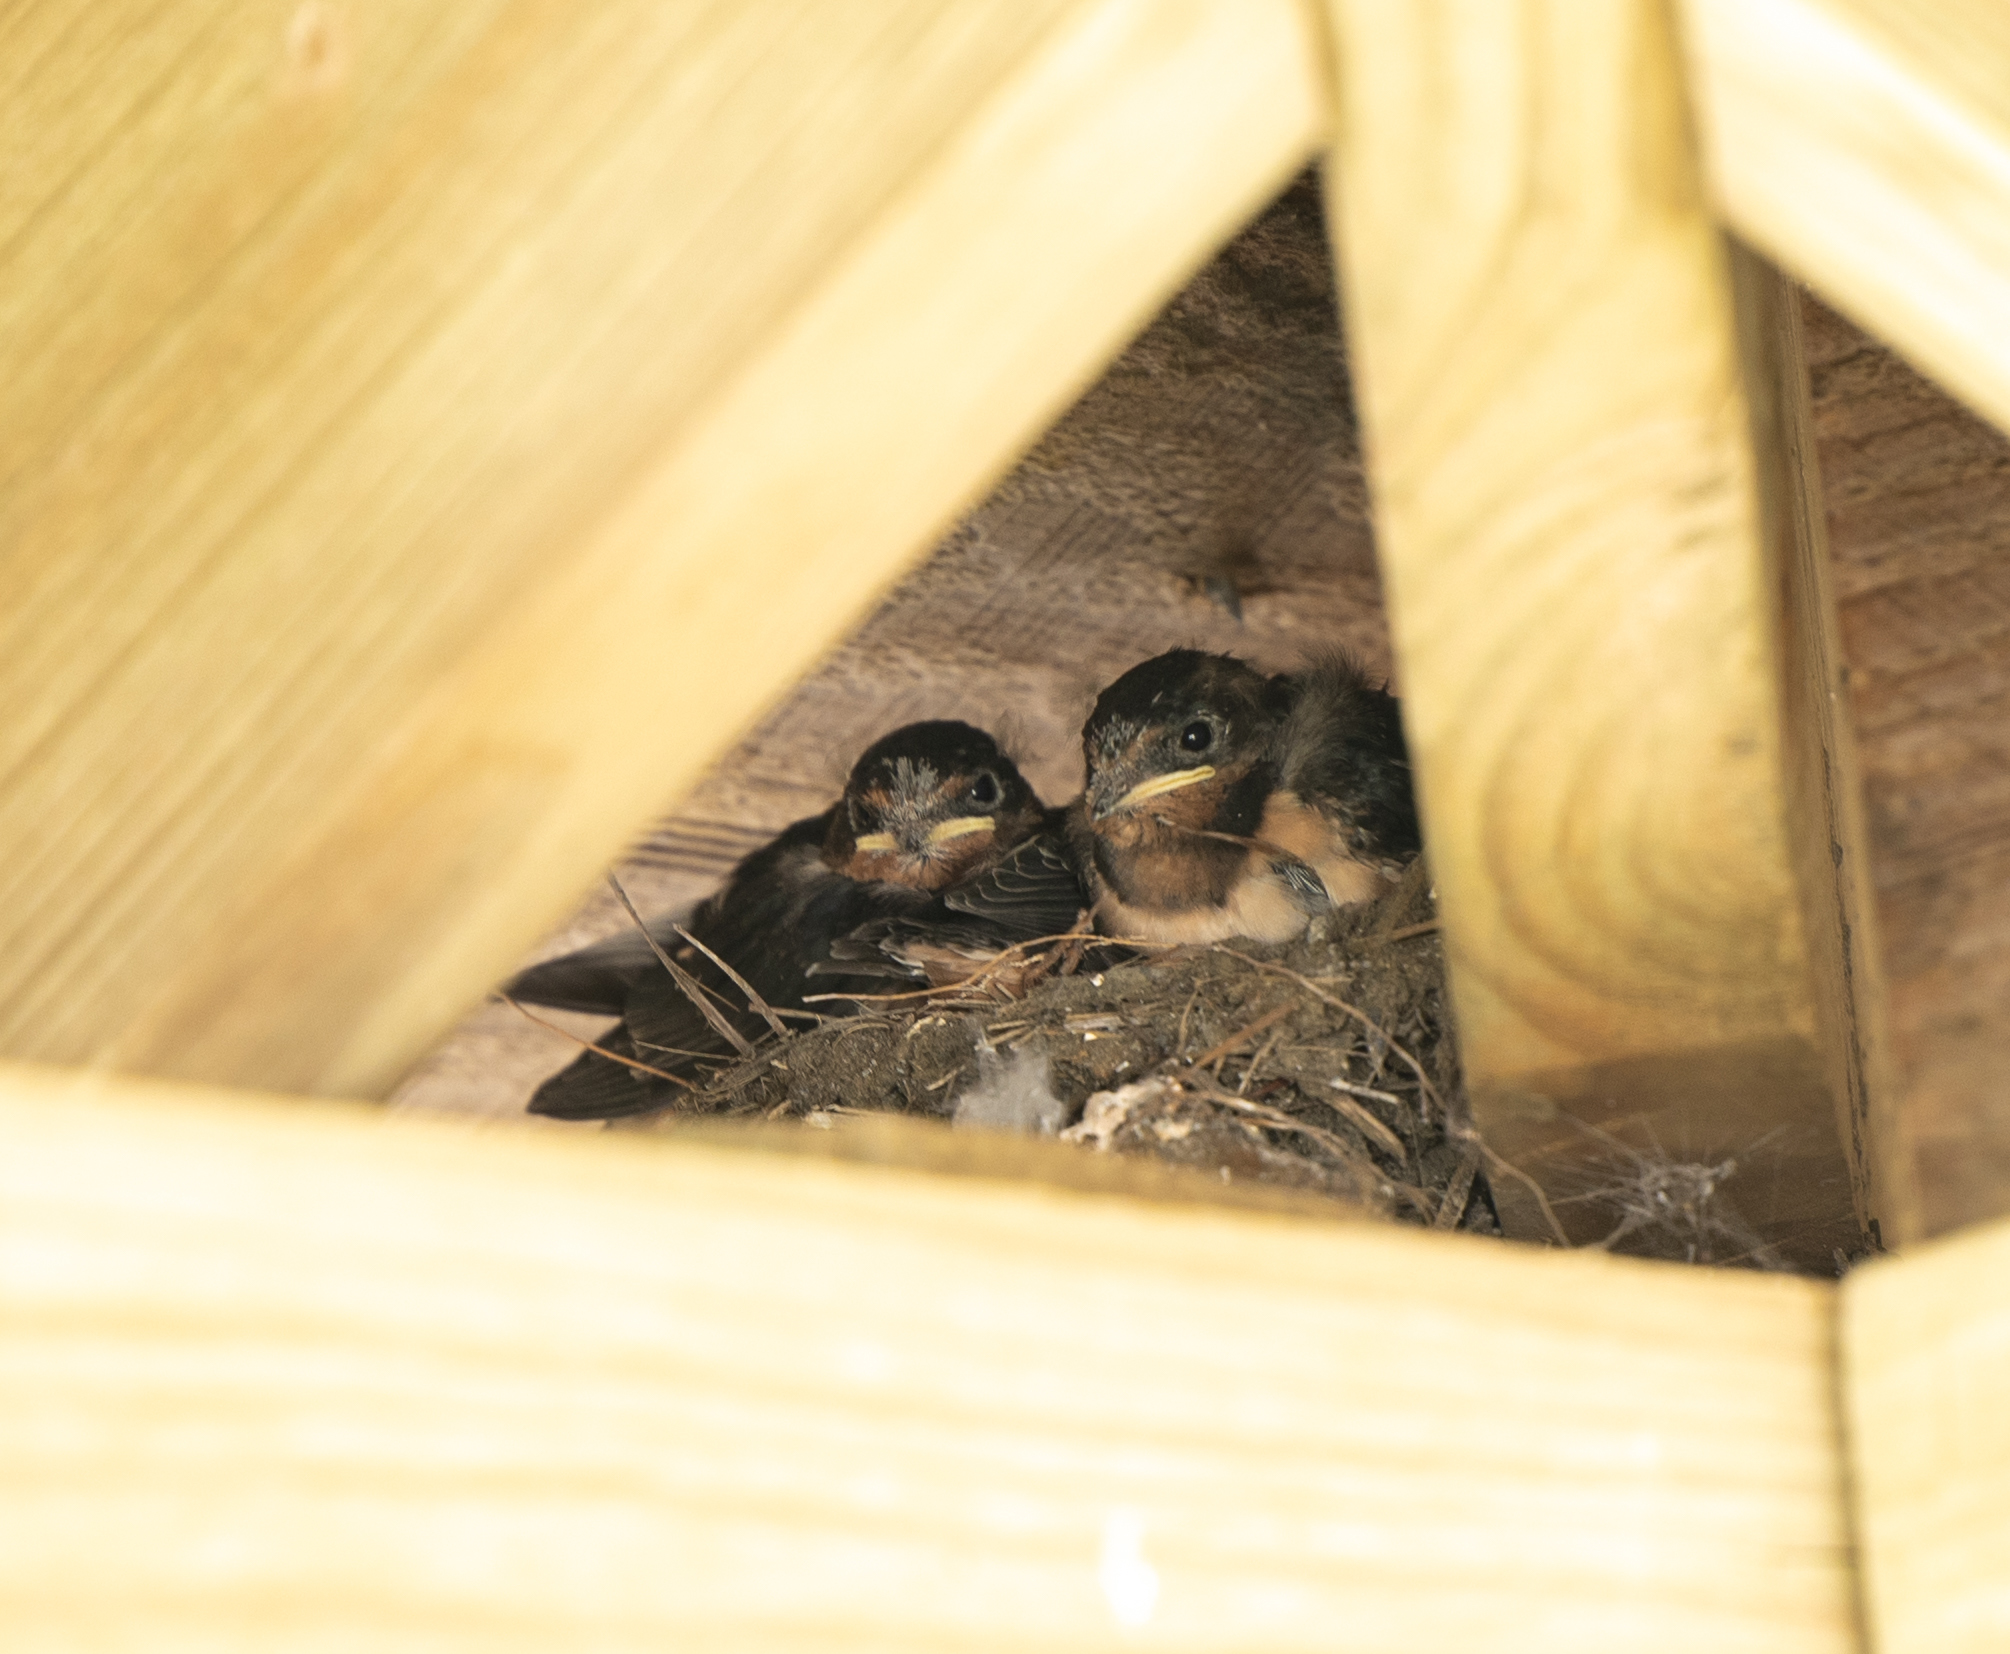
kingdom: Animalia
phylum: Chordata
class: Aves
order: Passeriformes
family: Hirundinidae
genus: Hirundo
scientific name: Hirundo rustica
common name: Barn swallow
